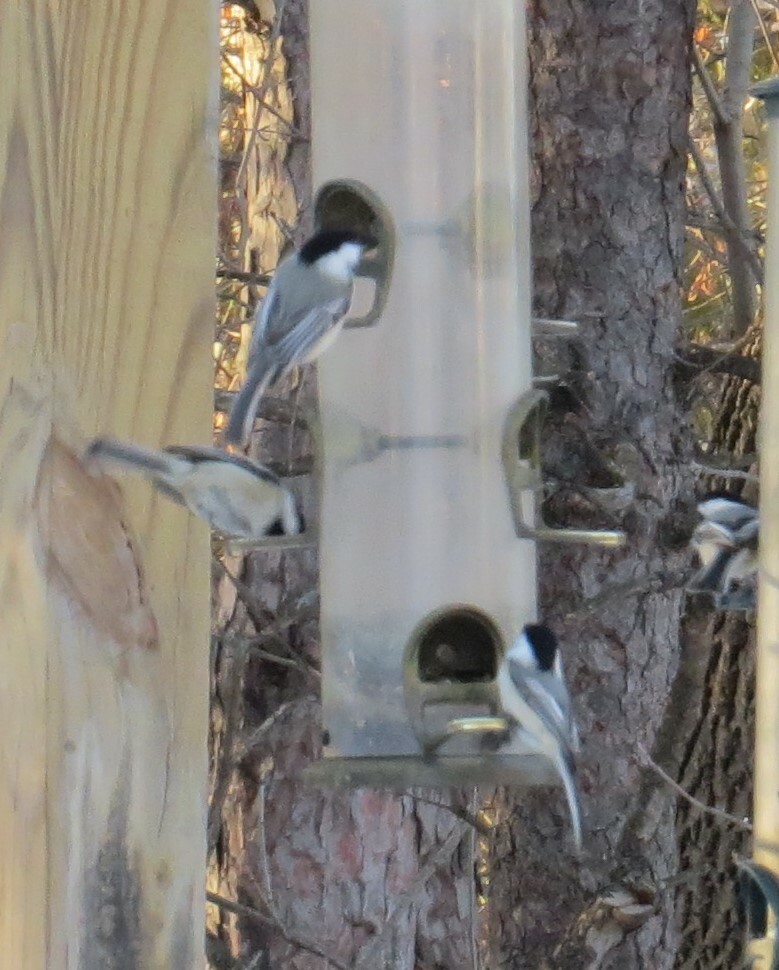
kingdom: Animalia
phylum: Chordata
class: Aves
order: Passeriformes
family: Paridae
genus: Poecile
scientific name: Poecile atricapillus
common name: Black-capped chickadee
